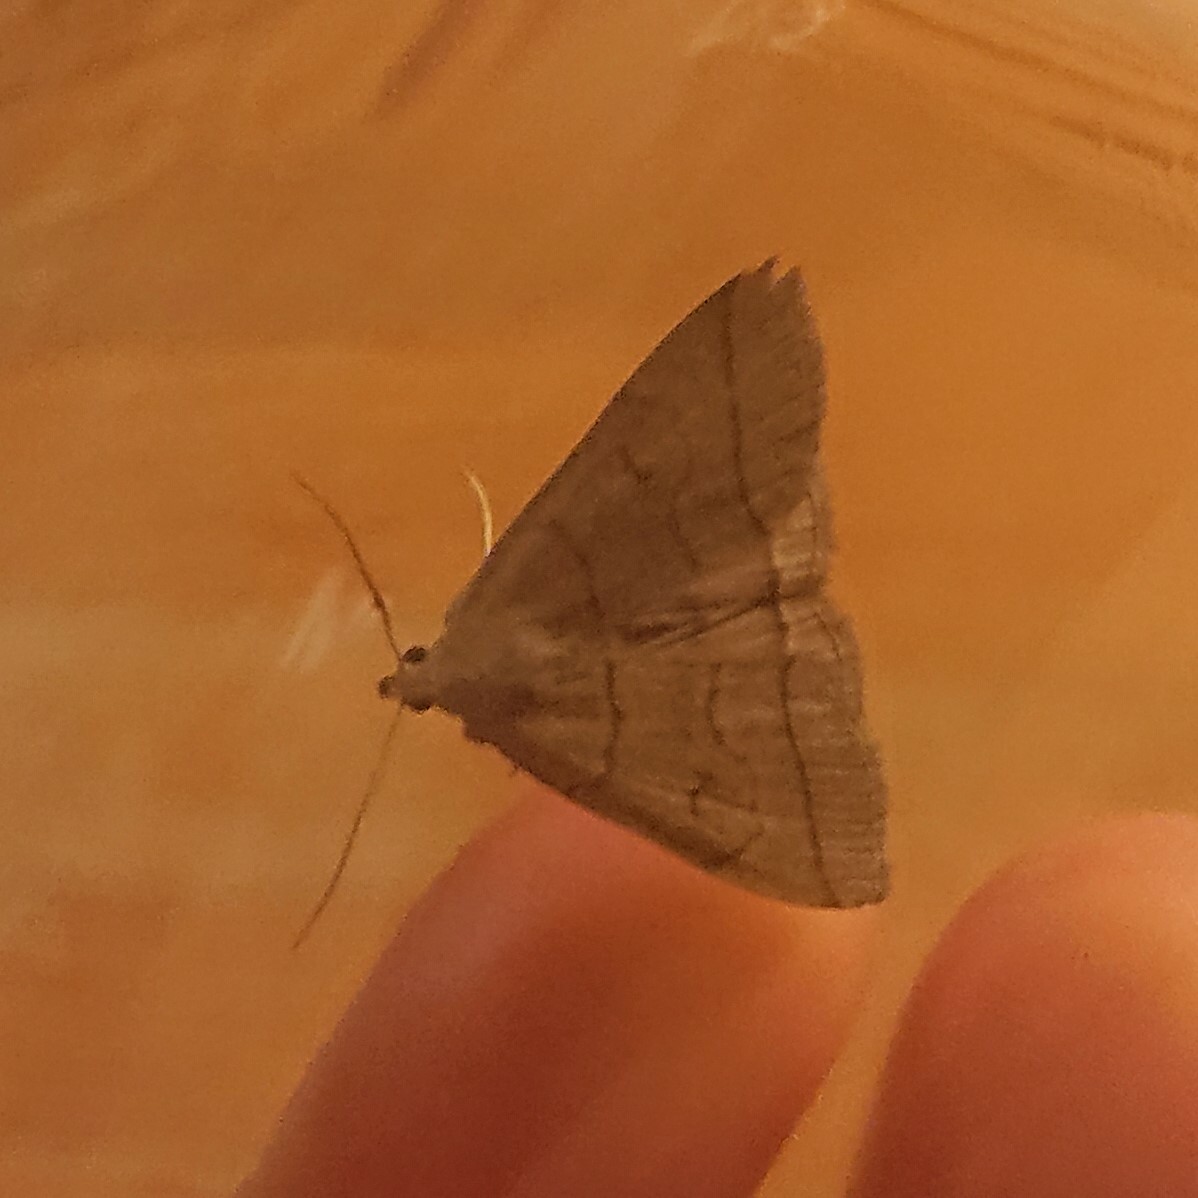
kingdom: Animalia
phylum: Arthropoda
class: Insecta
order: Lepidoptera
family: Erebidae
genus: Herminia
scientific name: Herminia tarsipennalis
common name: Fan-foot
